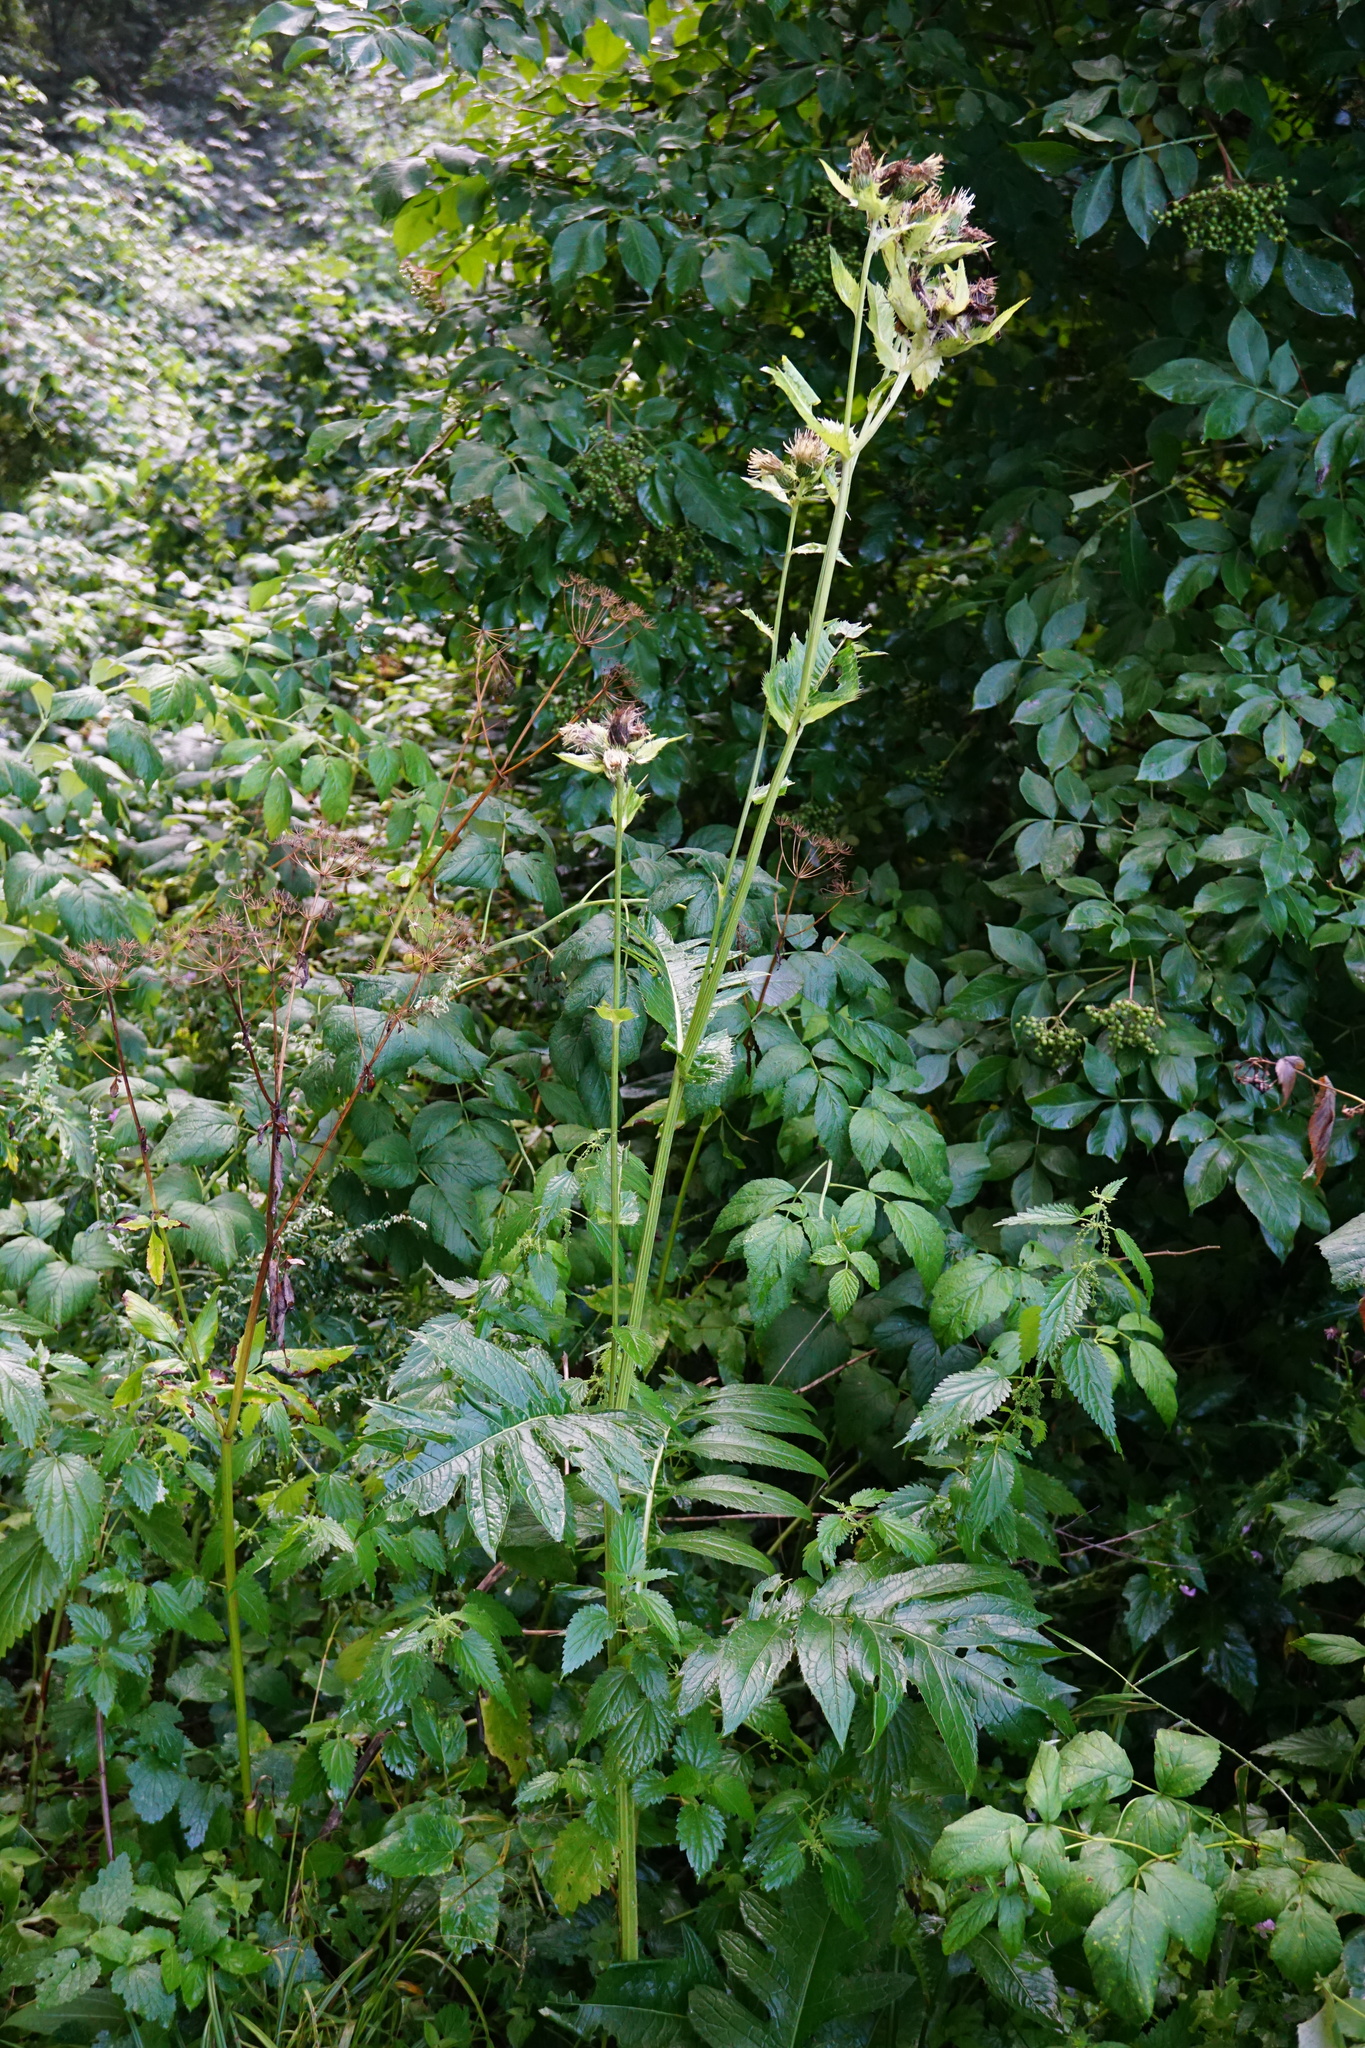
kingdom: Plantae
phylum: Tracheophyta
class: Magnoliopsida
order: Asterales
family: Asteraceae
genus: Cirsium
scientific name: Cirsium oleraceum
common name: Cabbage thistle
